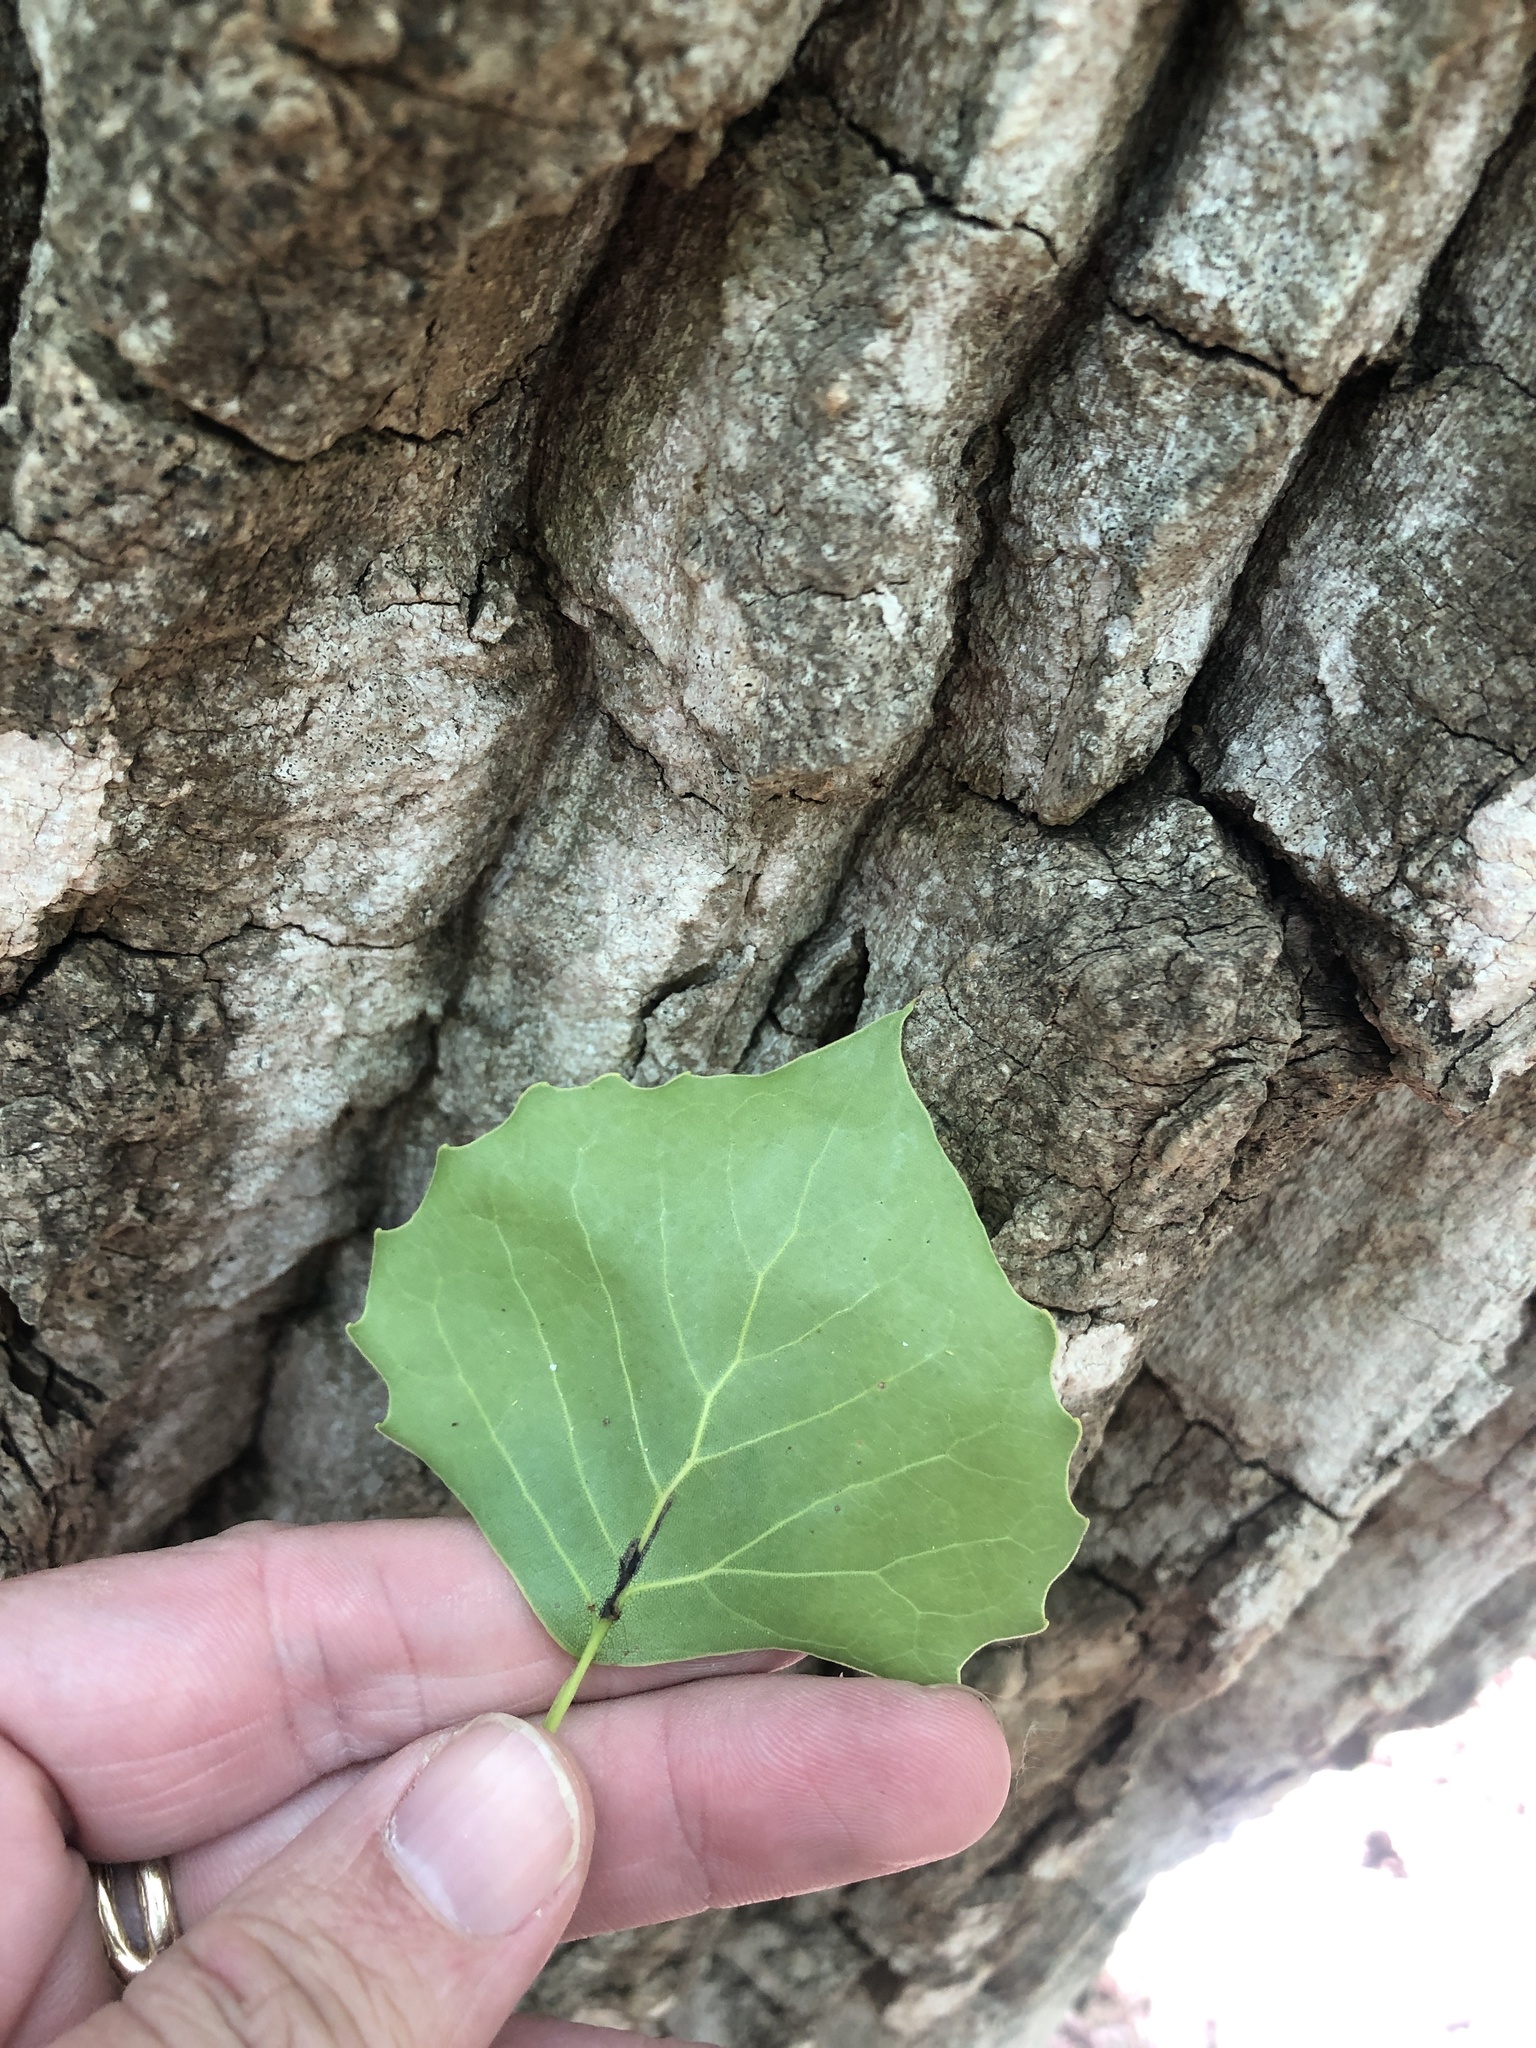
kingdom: Plantae
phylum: Tracheophyta
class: Magnoliopsida
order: Malpighiales
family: Salicaceae
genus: Populus
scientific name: Populus deltoides
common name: Eastern cottonwood
